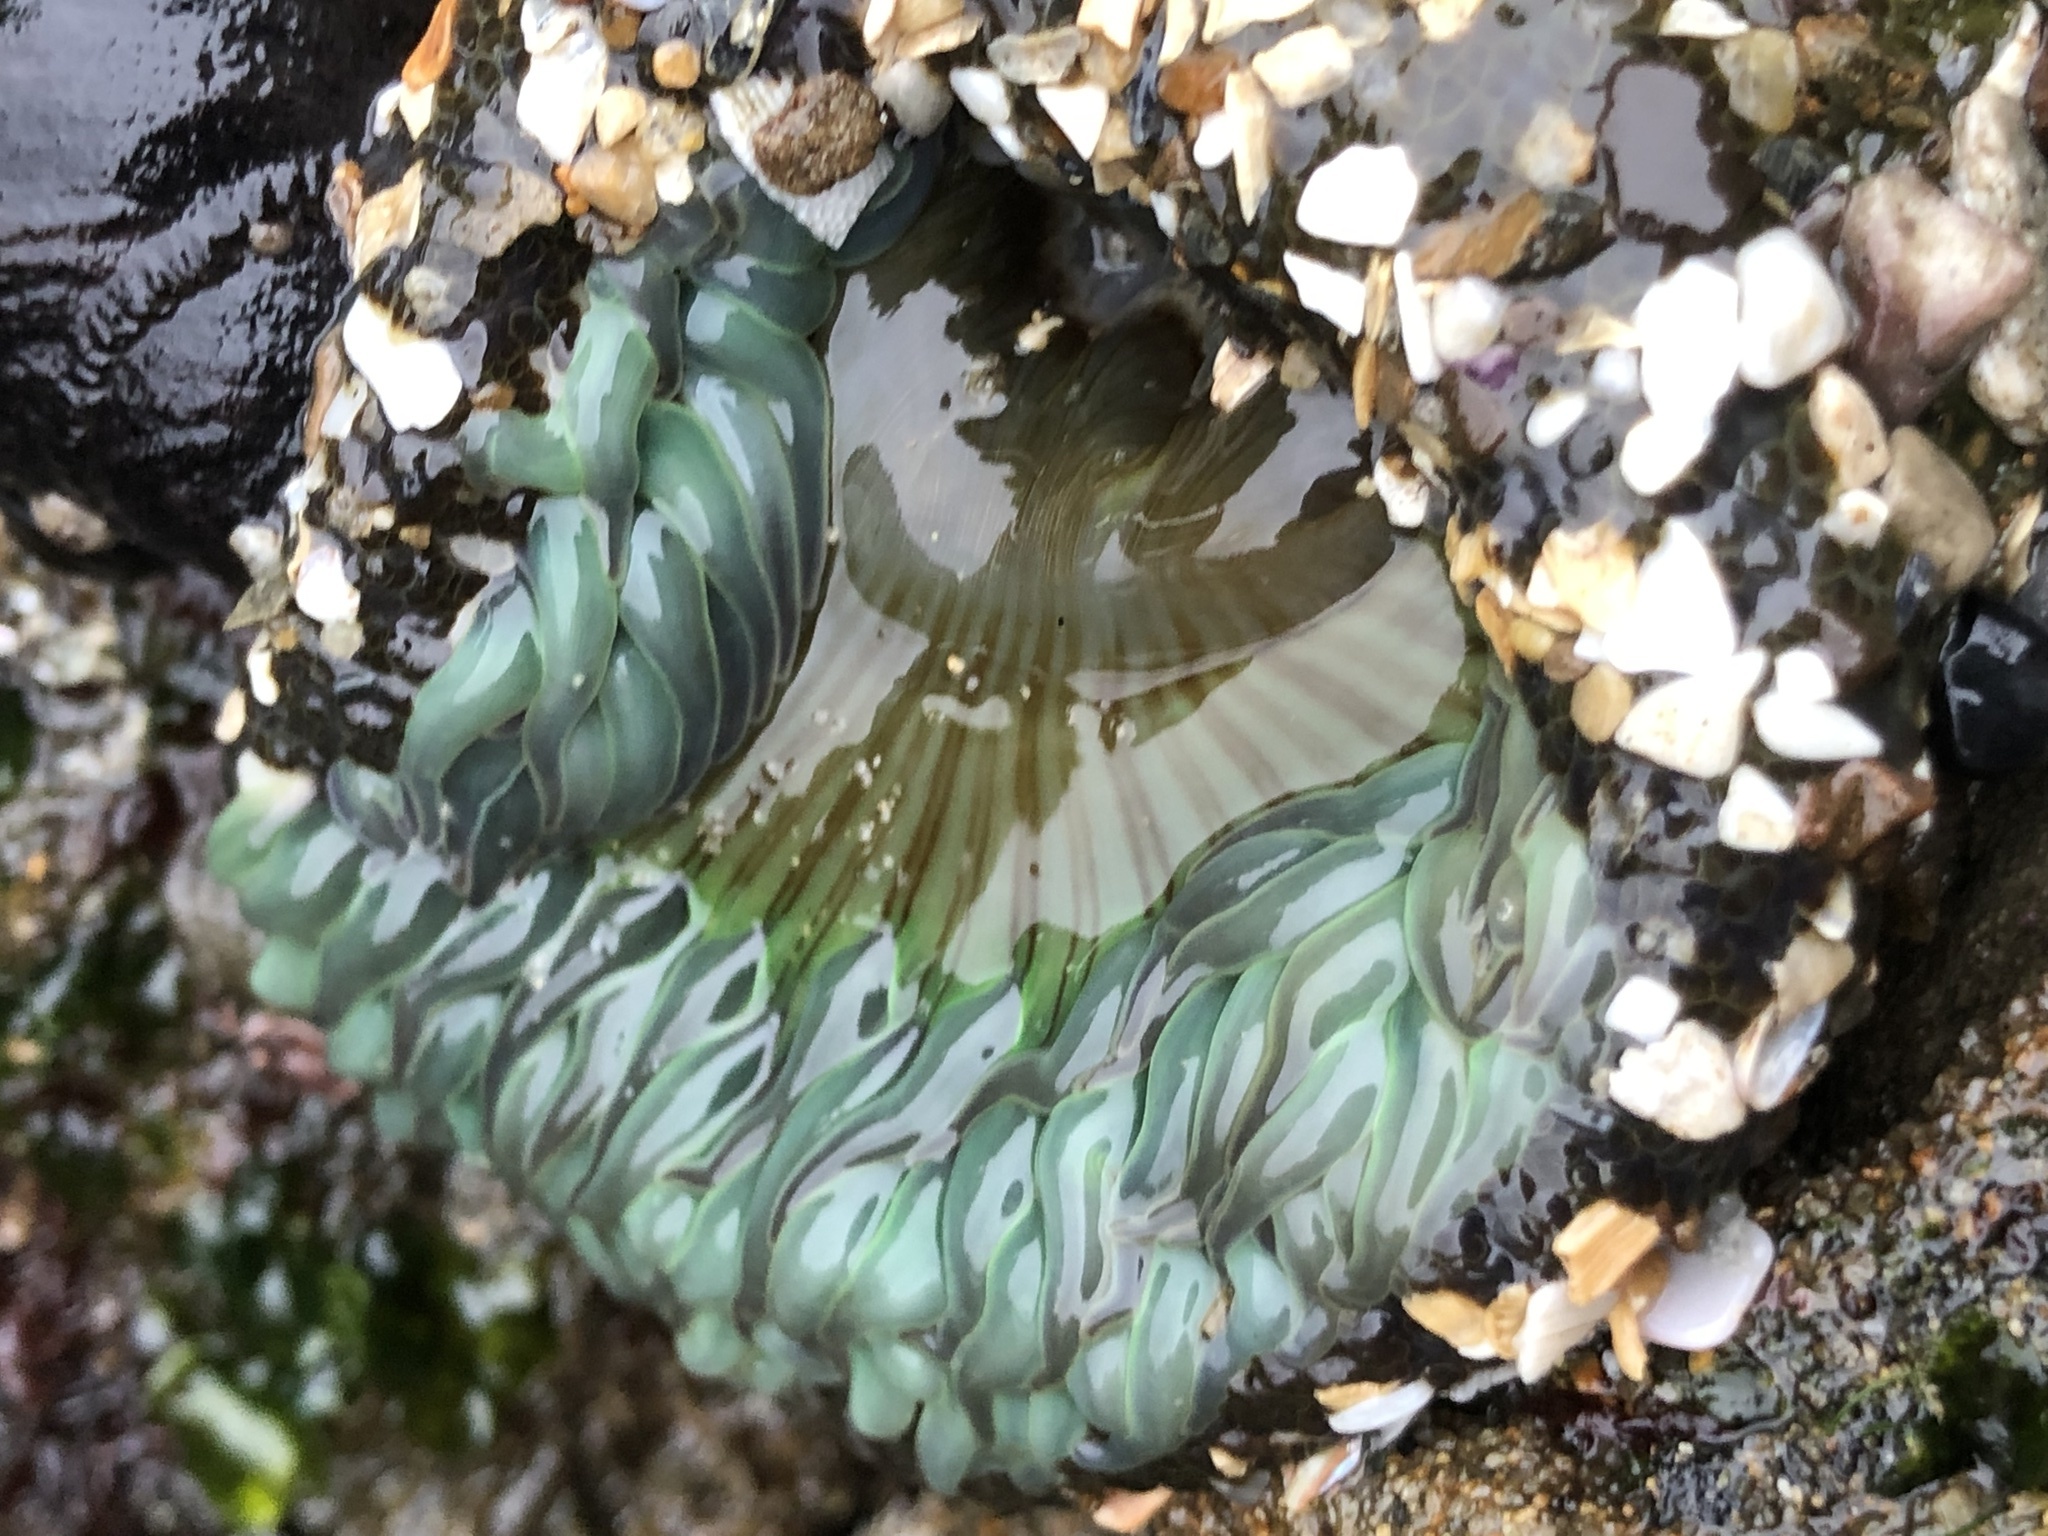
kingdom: Animalia
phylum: Cnidaria
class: Anthozoa
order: Actiniaria
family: Actiniidae
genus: Anthopleura
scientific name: Anthopleura sola
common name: Sun anemone
